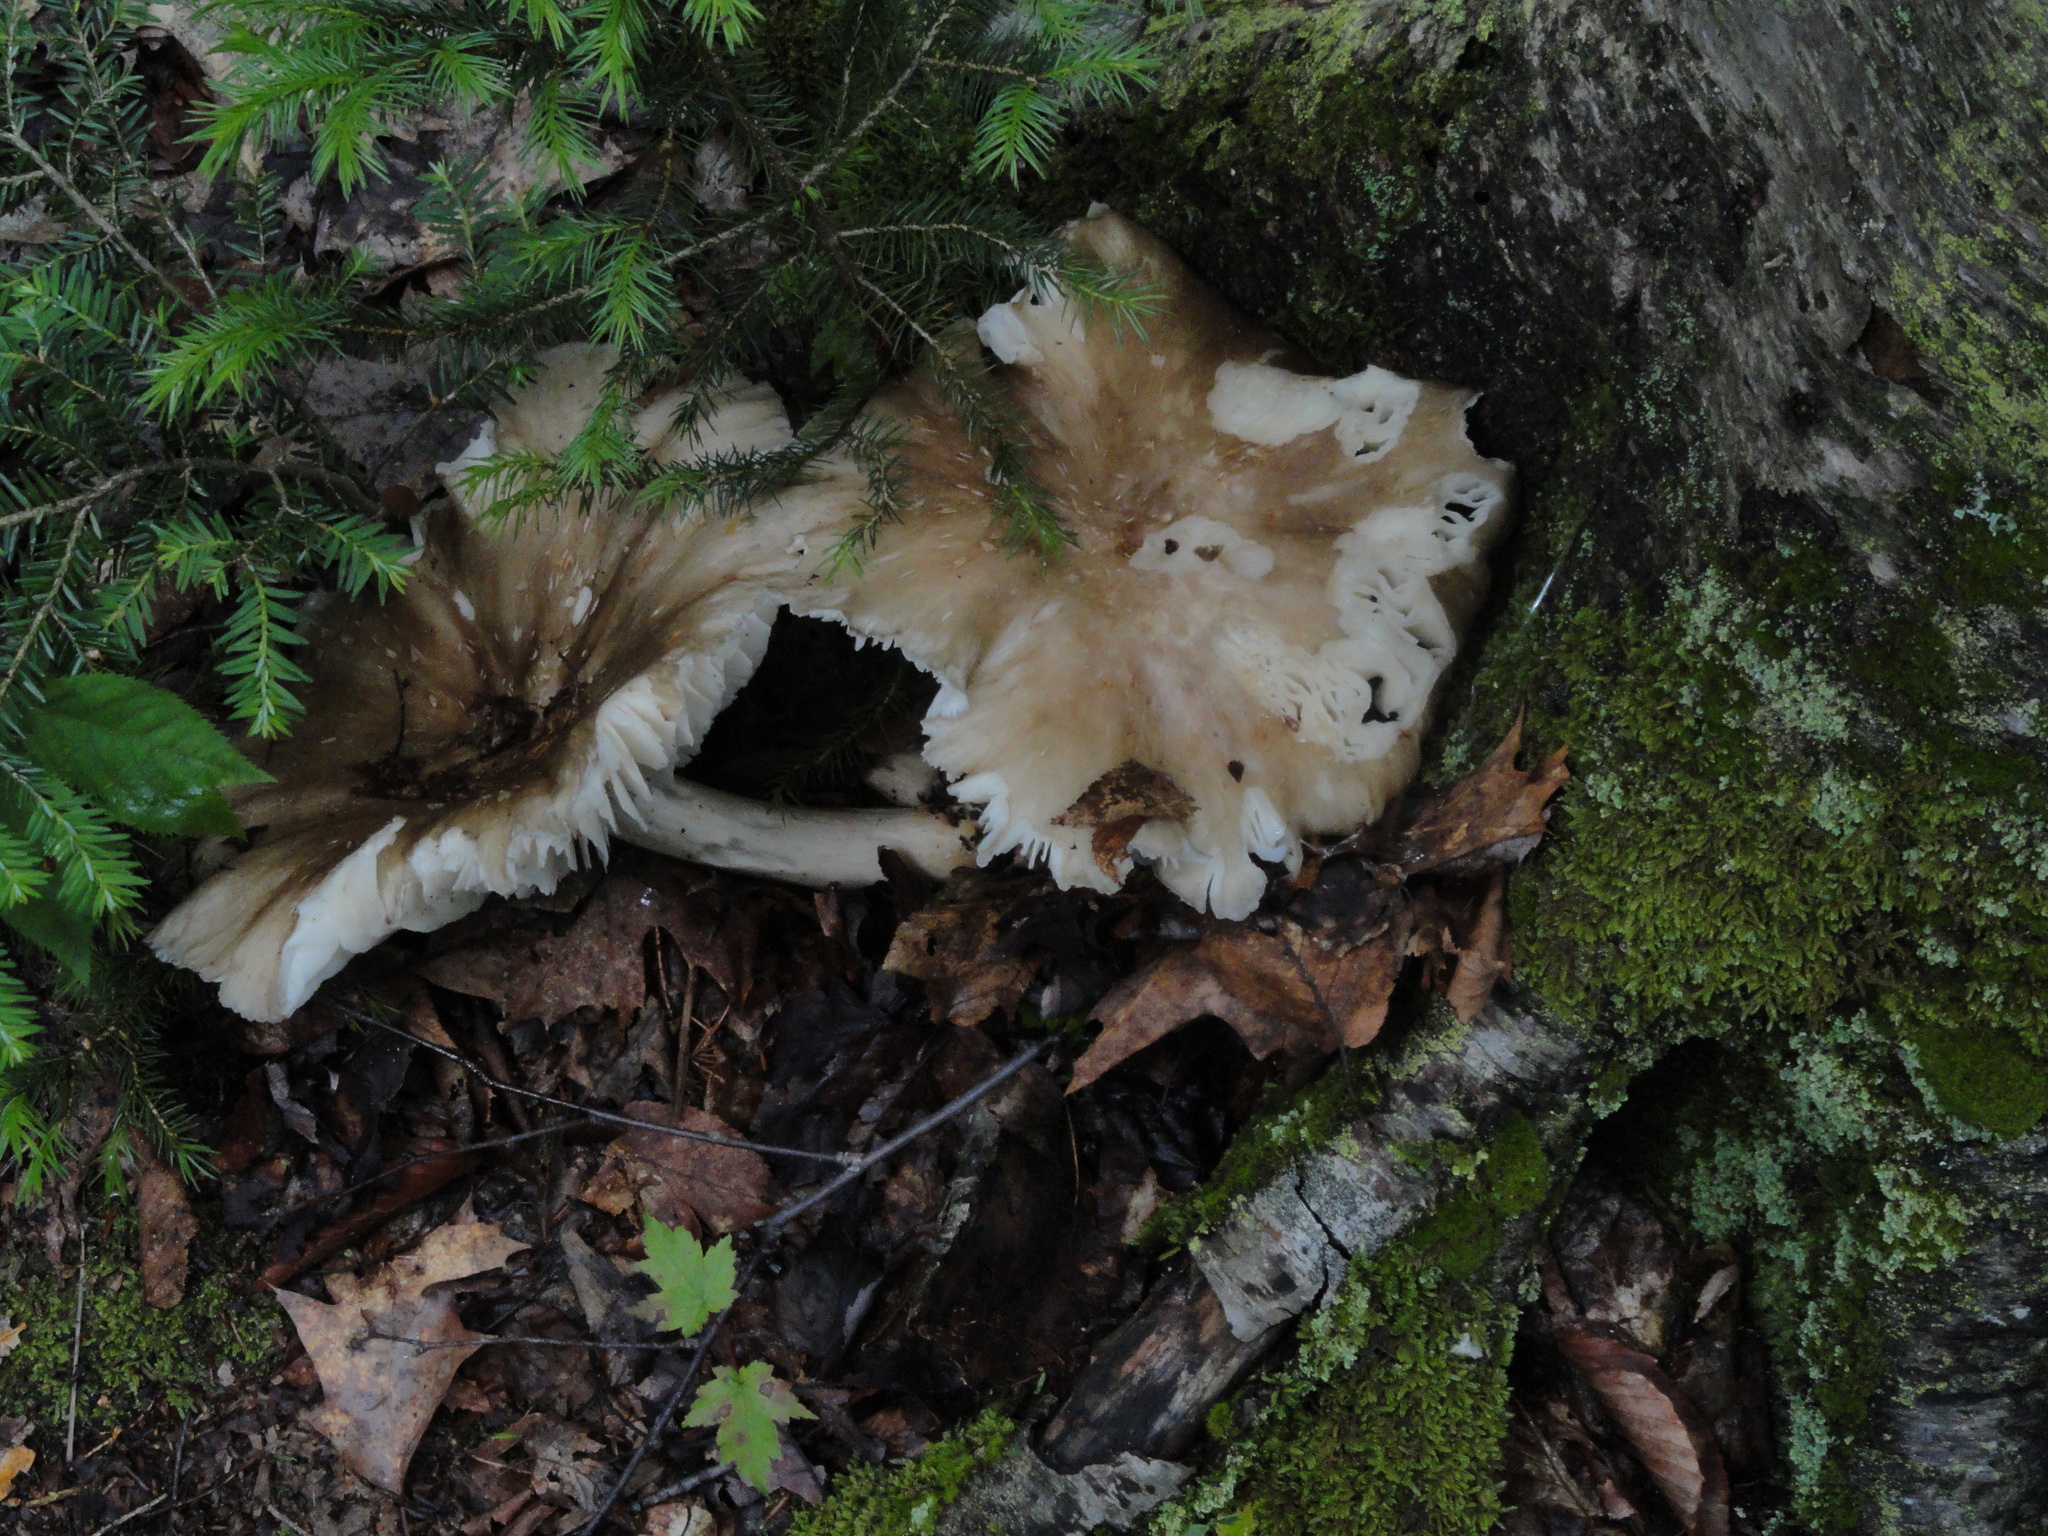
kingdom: Fungi
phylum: Basidiomycota
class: Agaricomycetes
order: Agaricales
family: Tricholomataceae
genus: Megacollybia
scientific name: Megacollybia rodmanii
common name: Eastern american platterful mushroom
